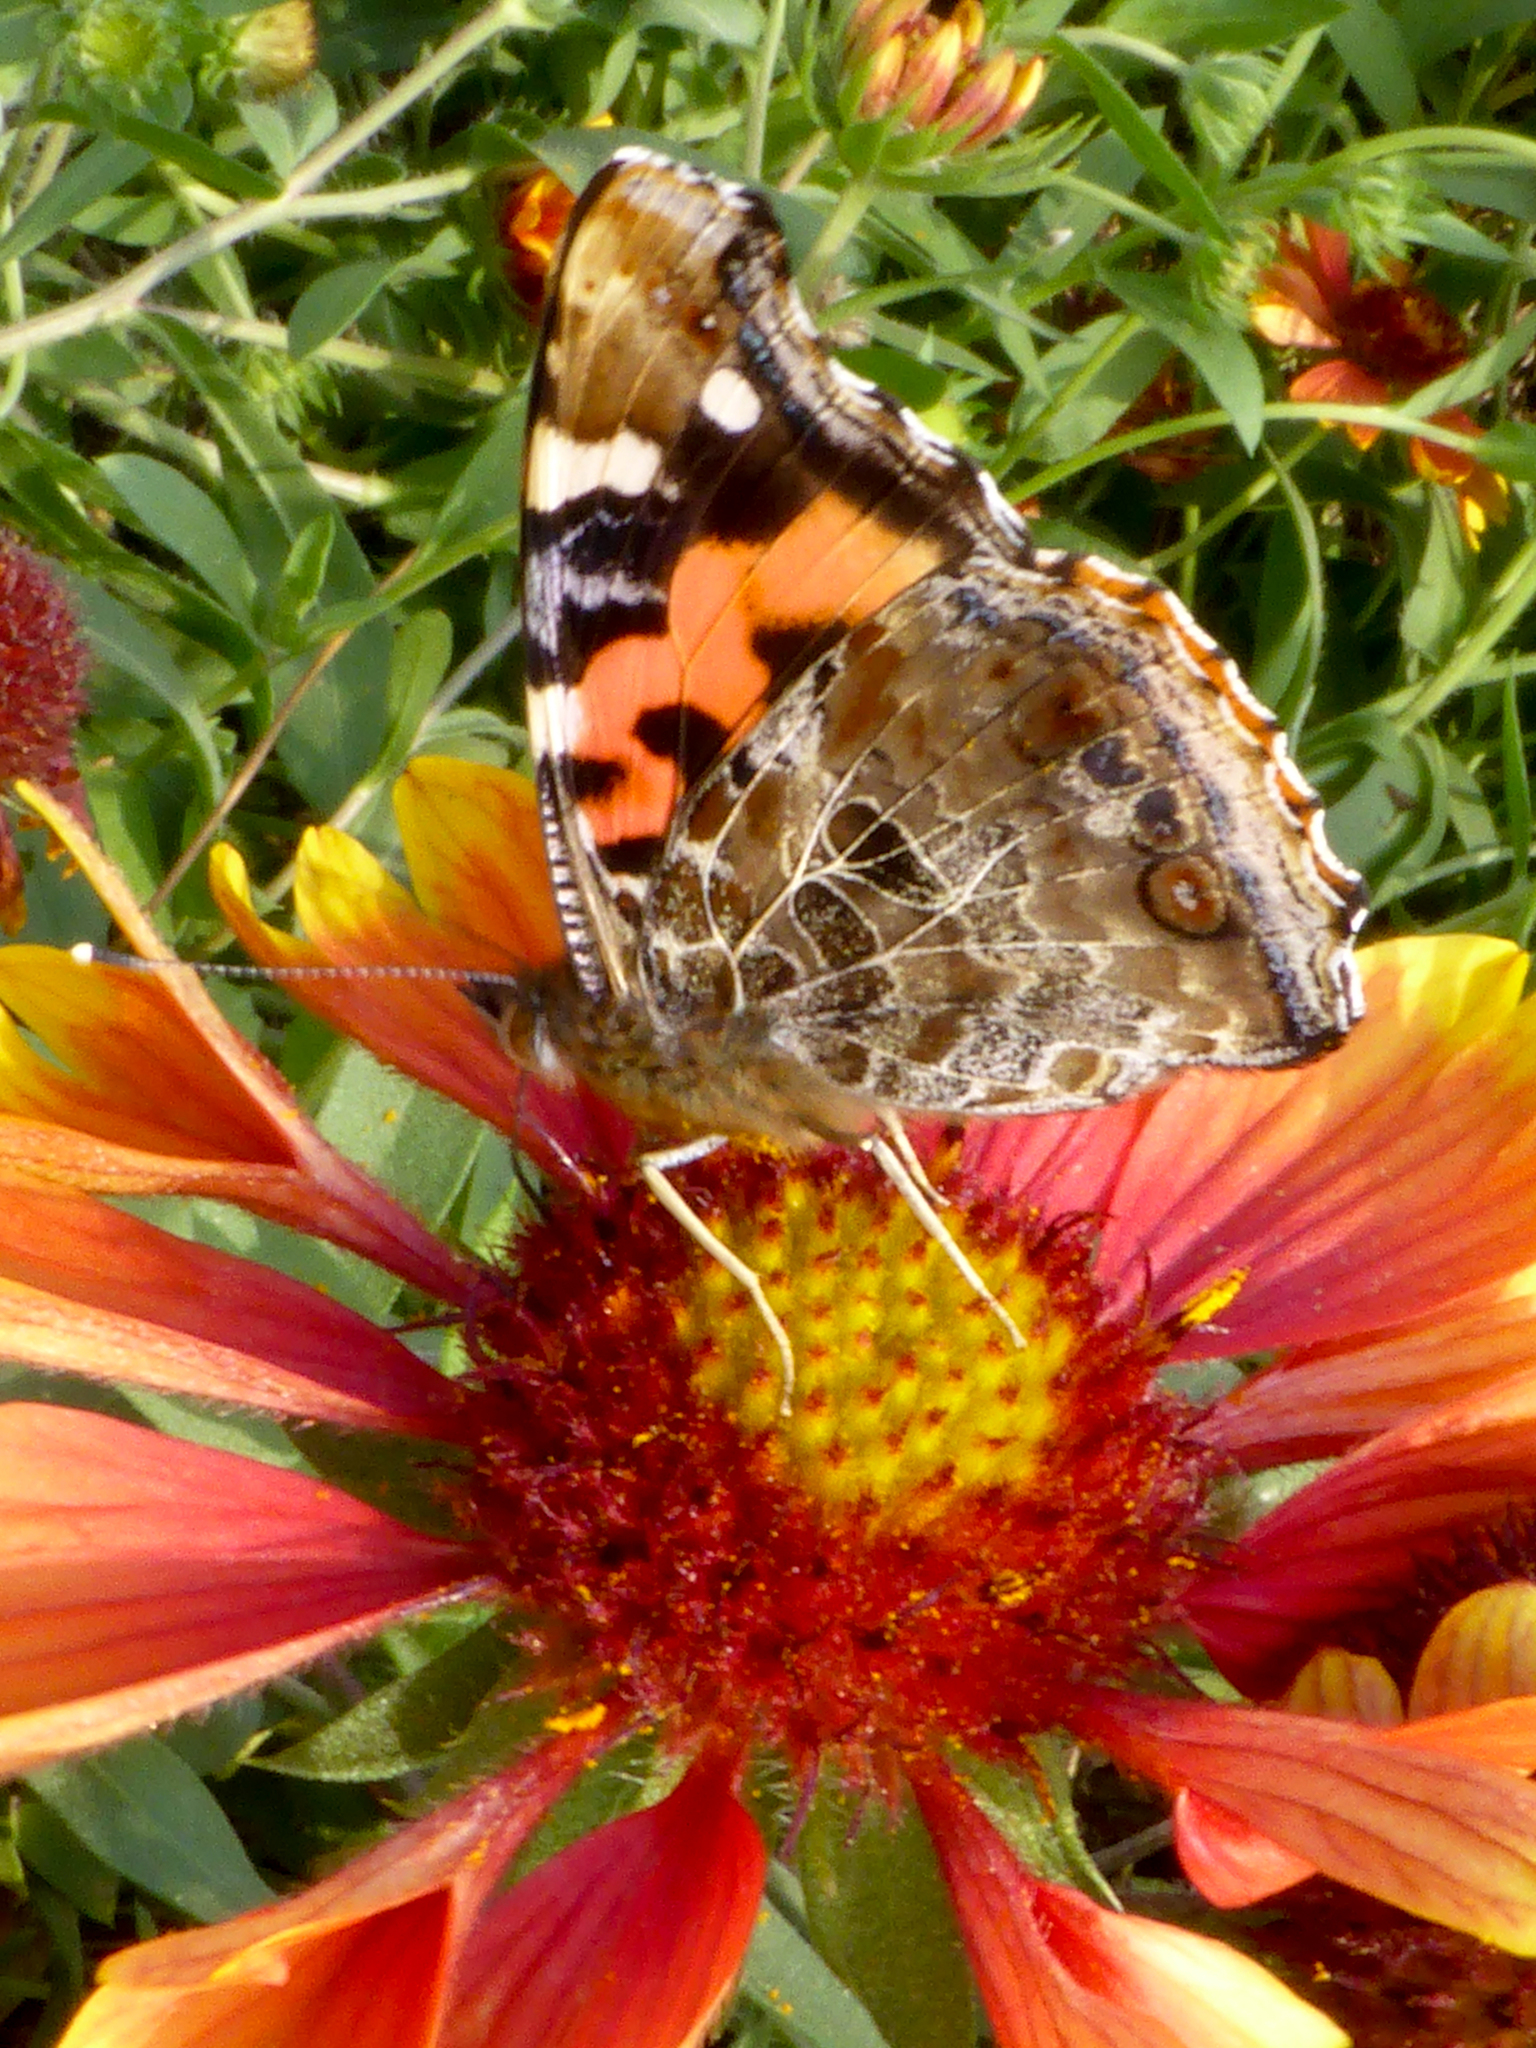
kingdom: Animalia
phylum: Arthropoda
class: Insecta
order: Lepidoptera
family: Nymphalidae
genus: Vanessa
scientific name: Vanessa indica
